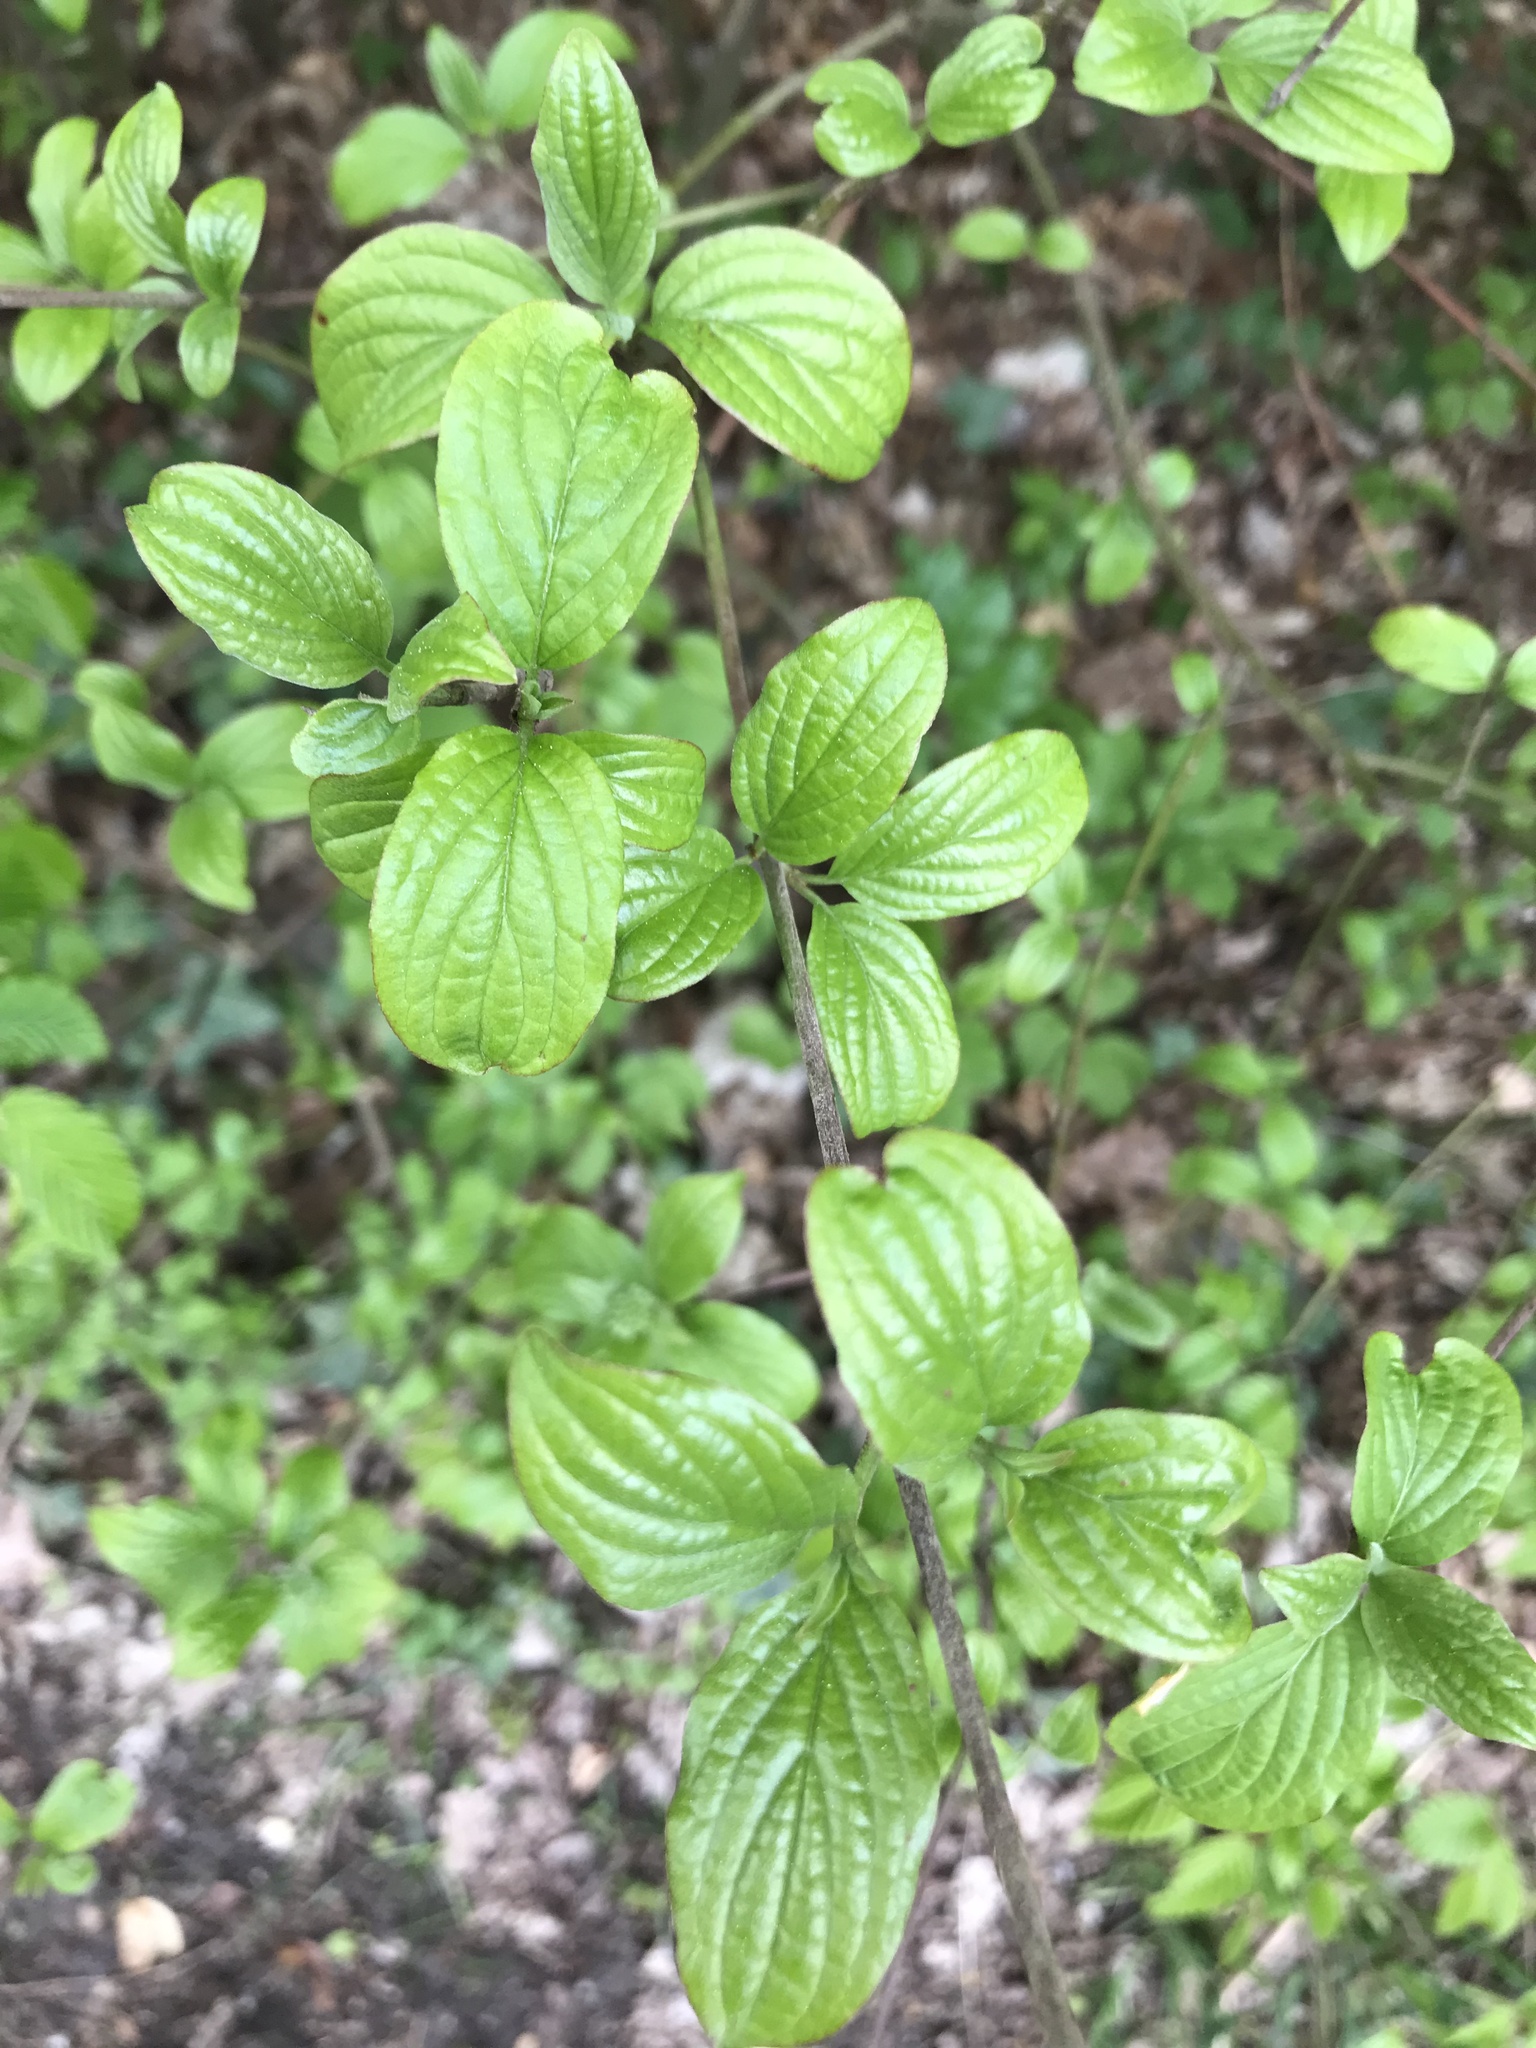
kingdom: Plantae
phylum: Tracheophyta
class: Magnoliopsida
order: Cornales
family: Cornaceae
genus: Cornus
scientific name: Cornus sanguinea
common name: Dogwood
